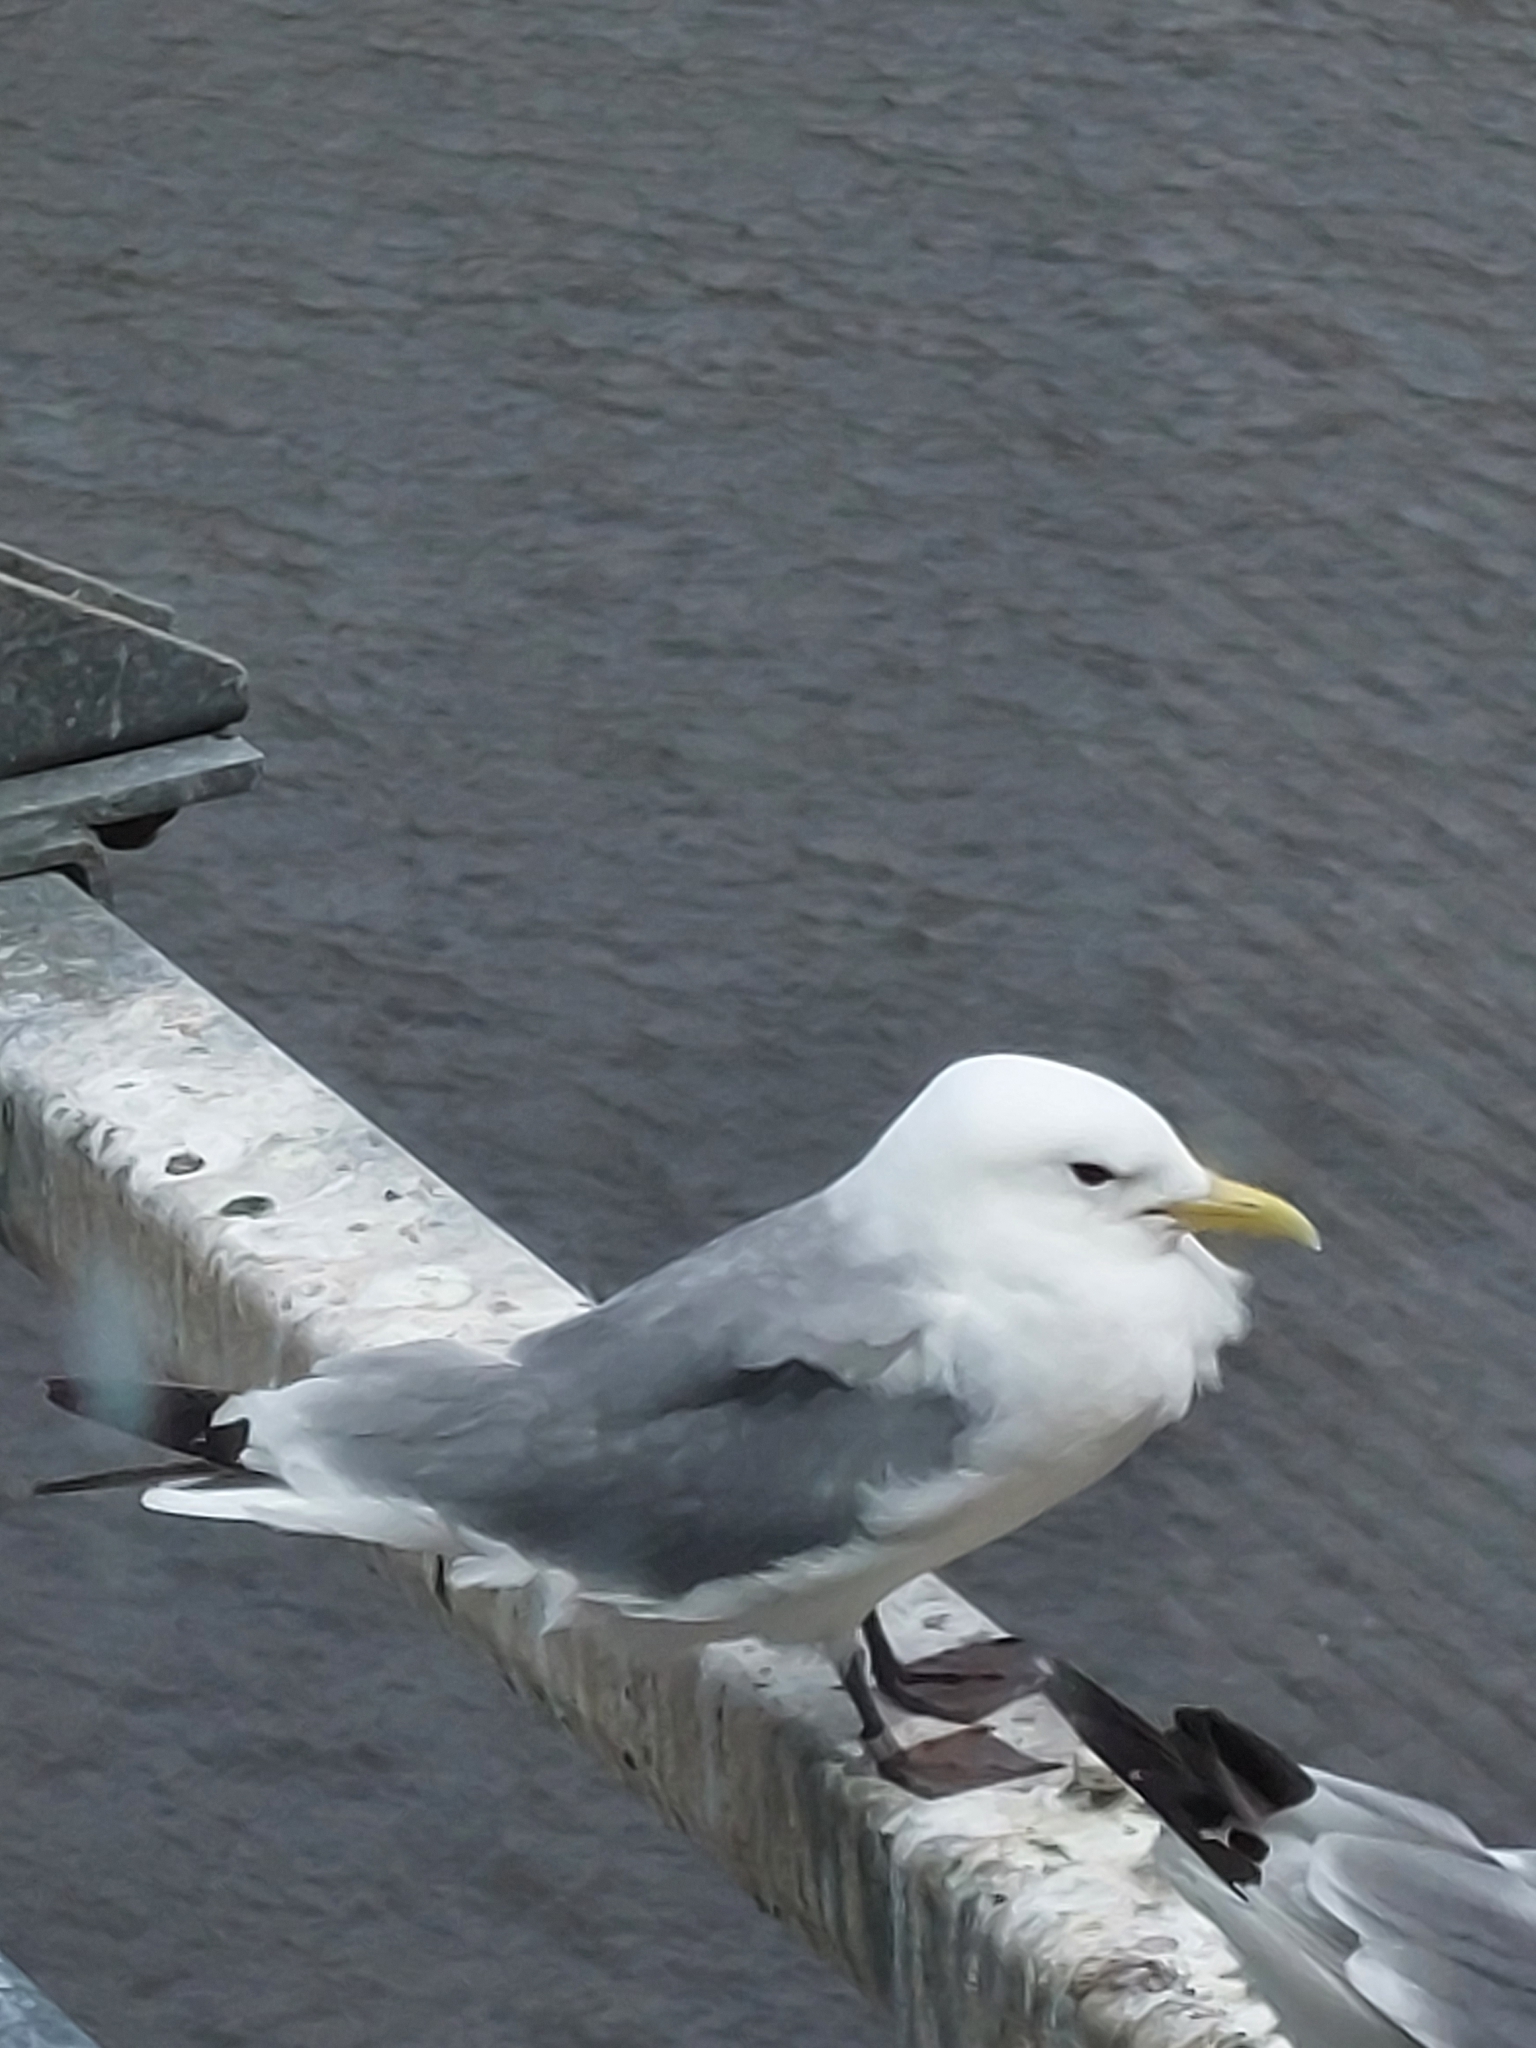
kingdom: Animalia
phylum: Chordata
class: Aves
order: Charadriiformes
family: Laridae
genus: Rissa
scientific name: Rissa tridactyla
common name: Black-legged kittiwake
